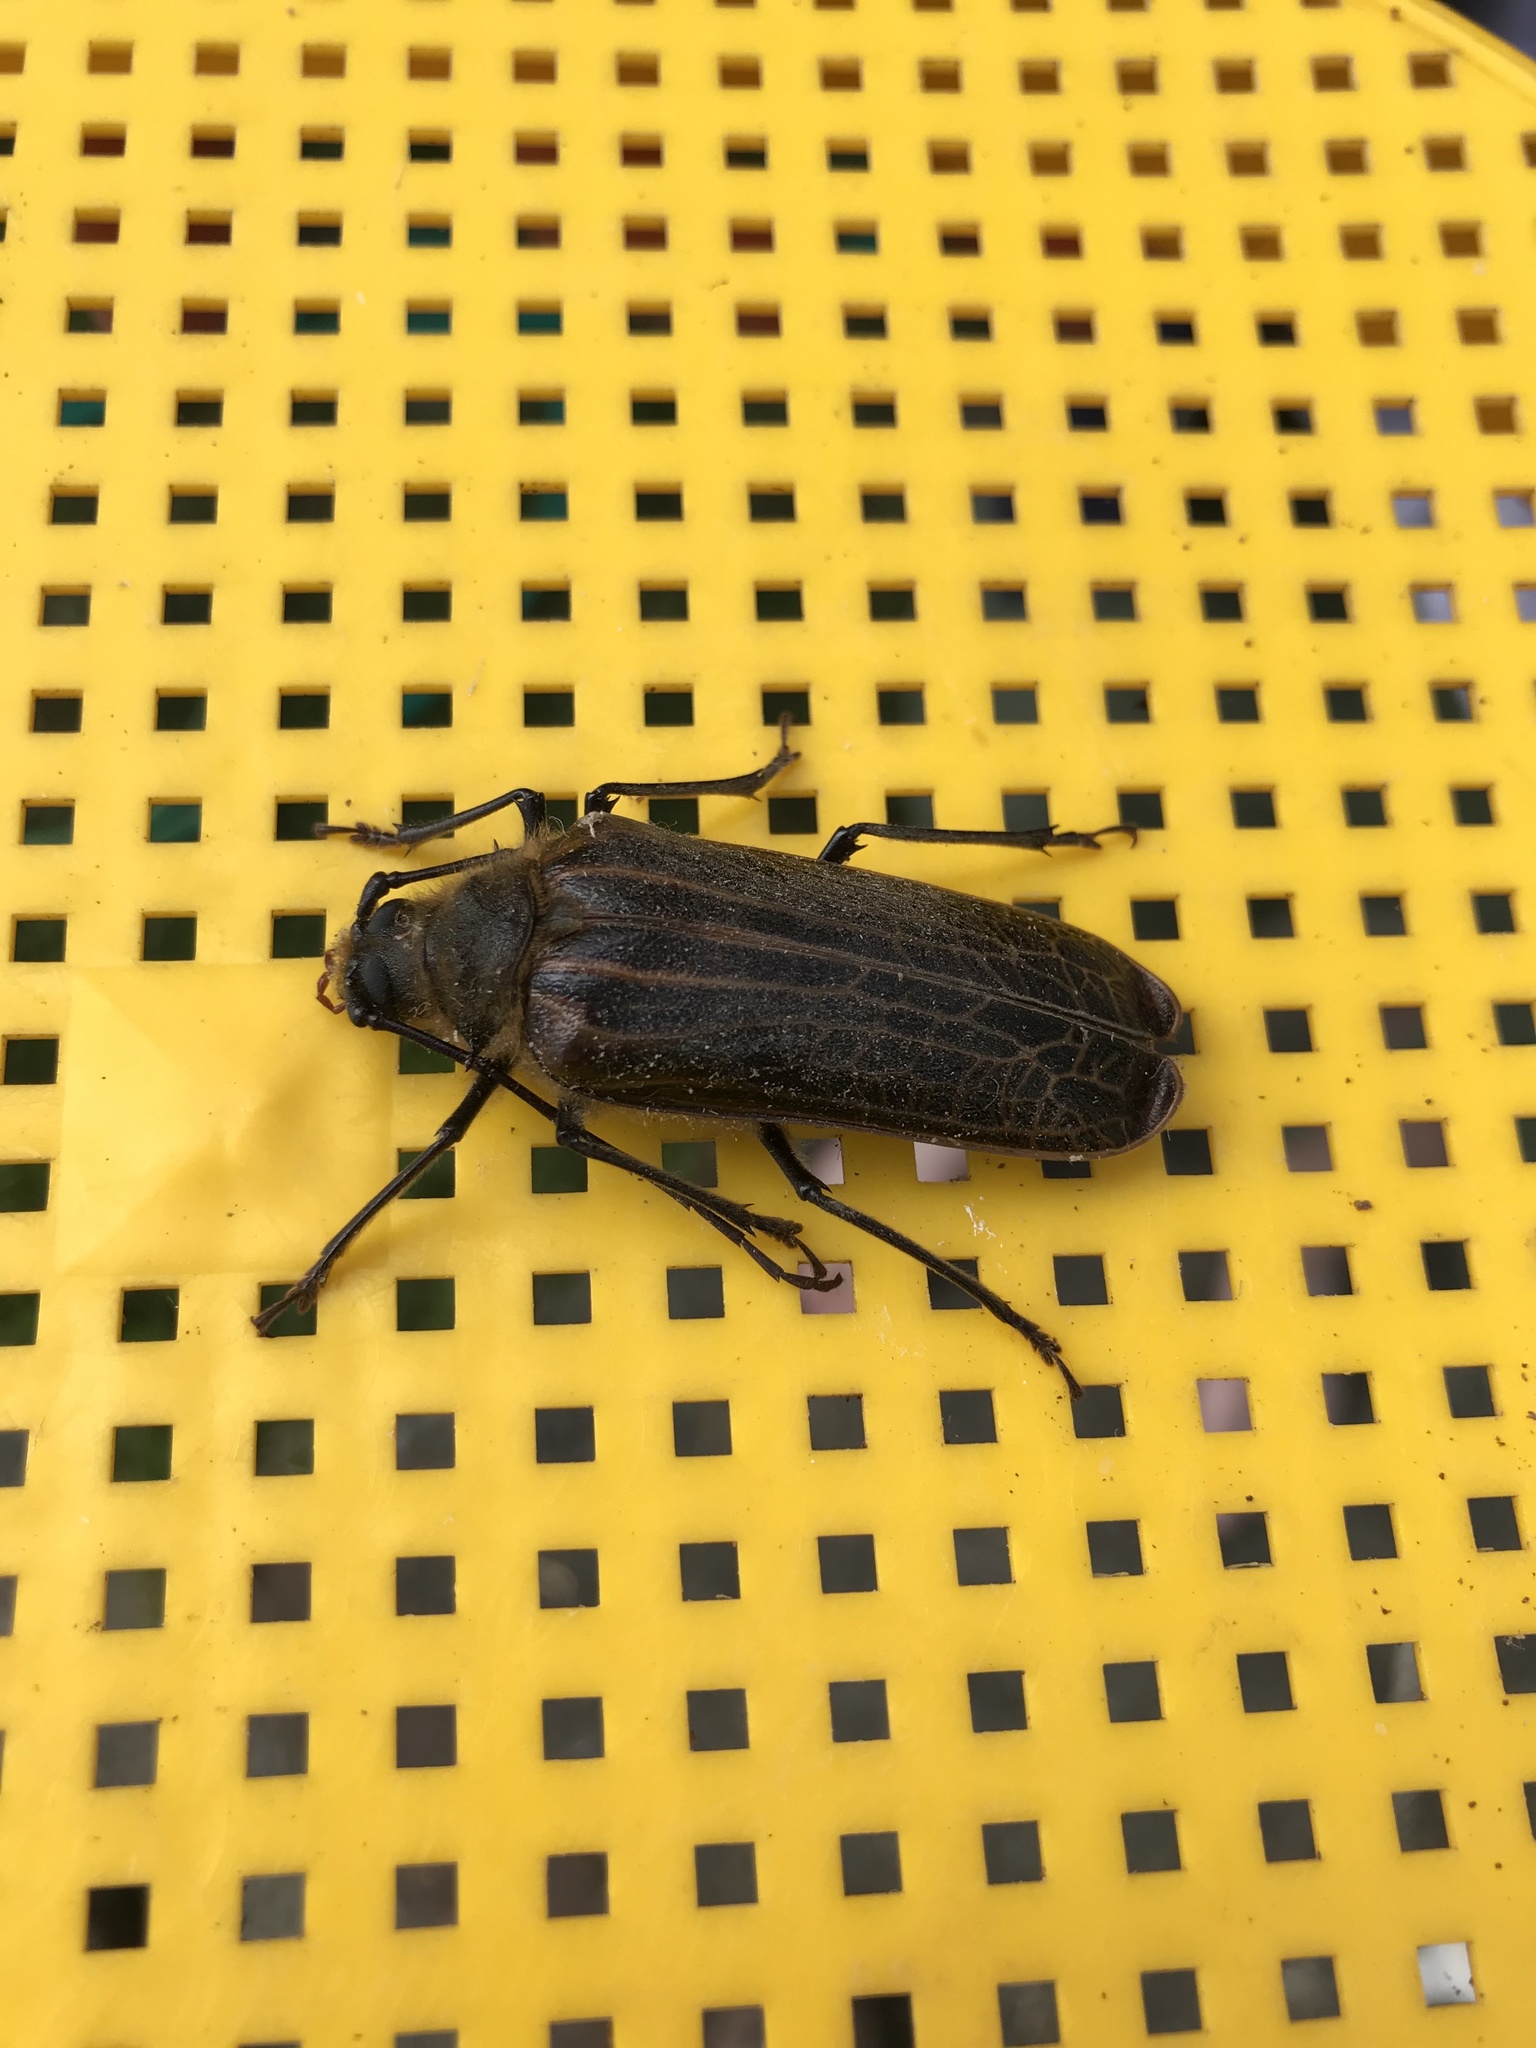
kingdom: Animalia
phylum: Arthropoda
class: Insecta
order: Coleoptera
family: Cerambycidae
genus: Prionoplus
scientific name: Prionoplus reticularis
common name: Huhu beetle
